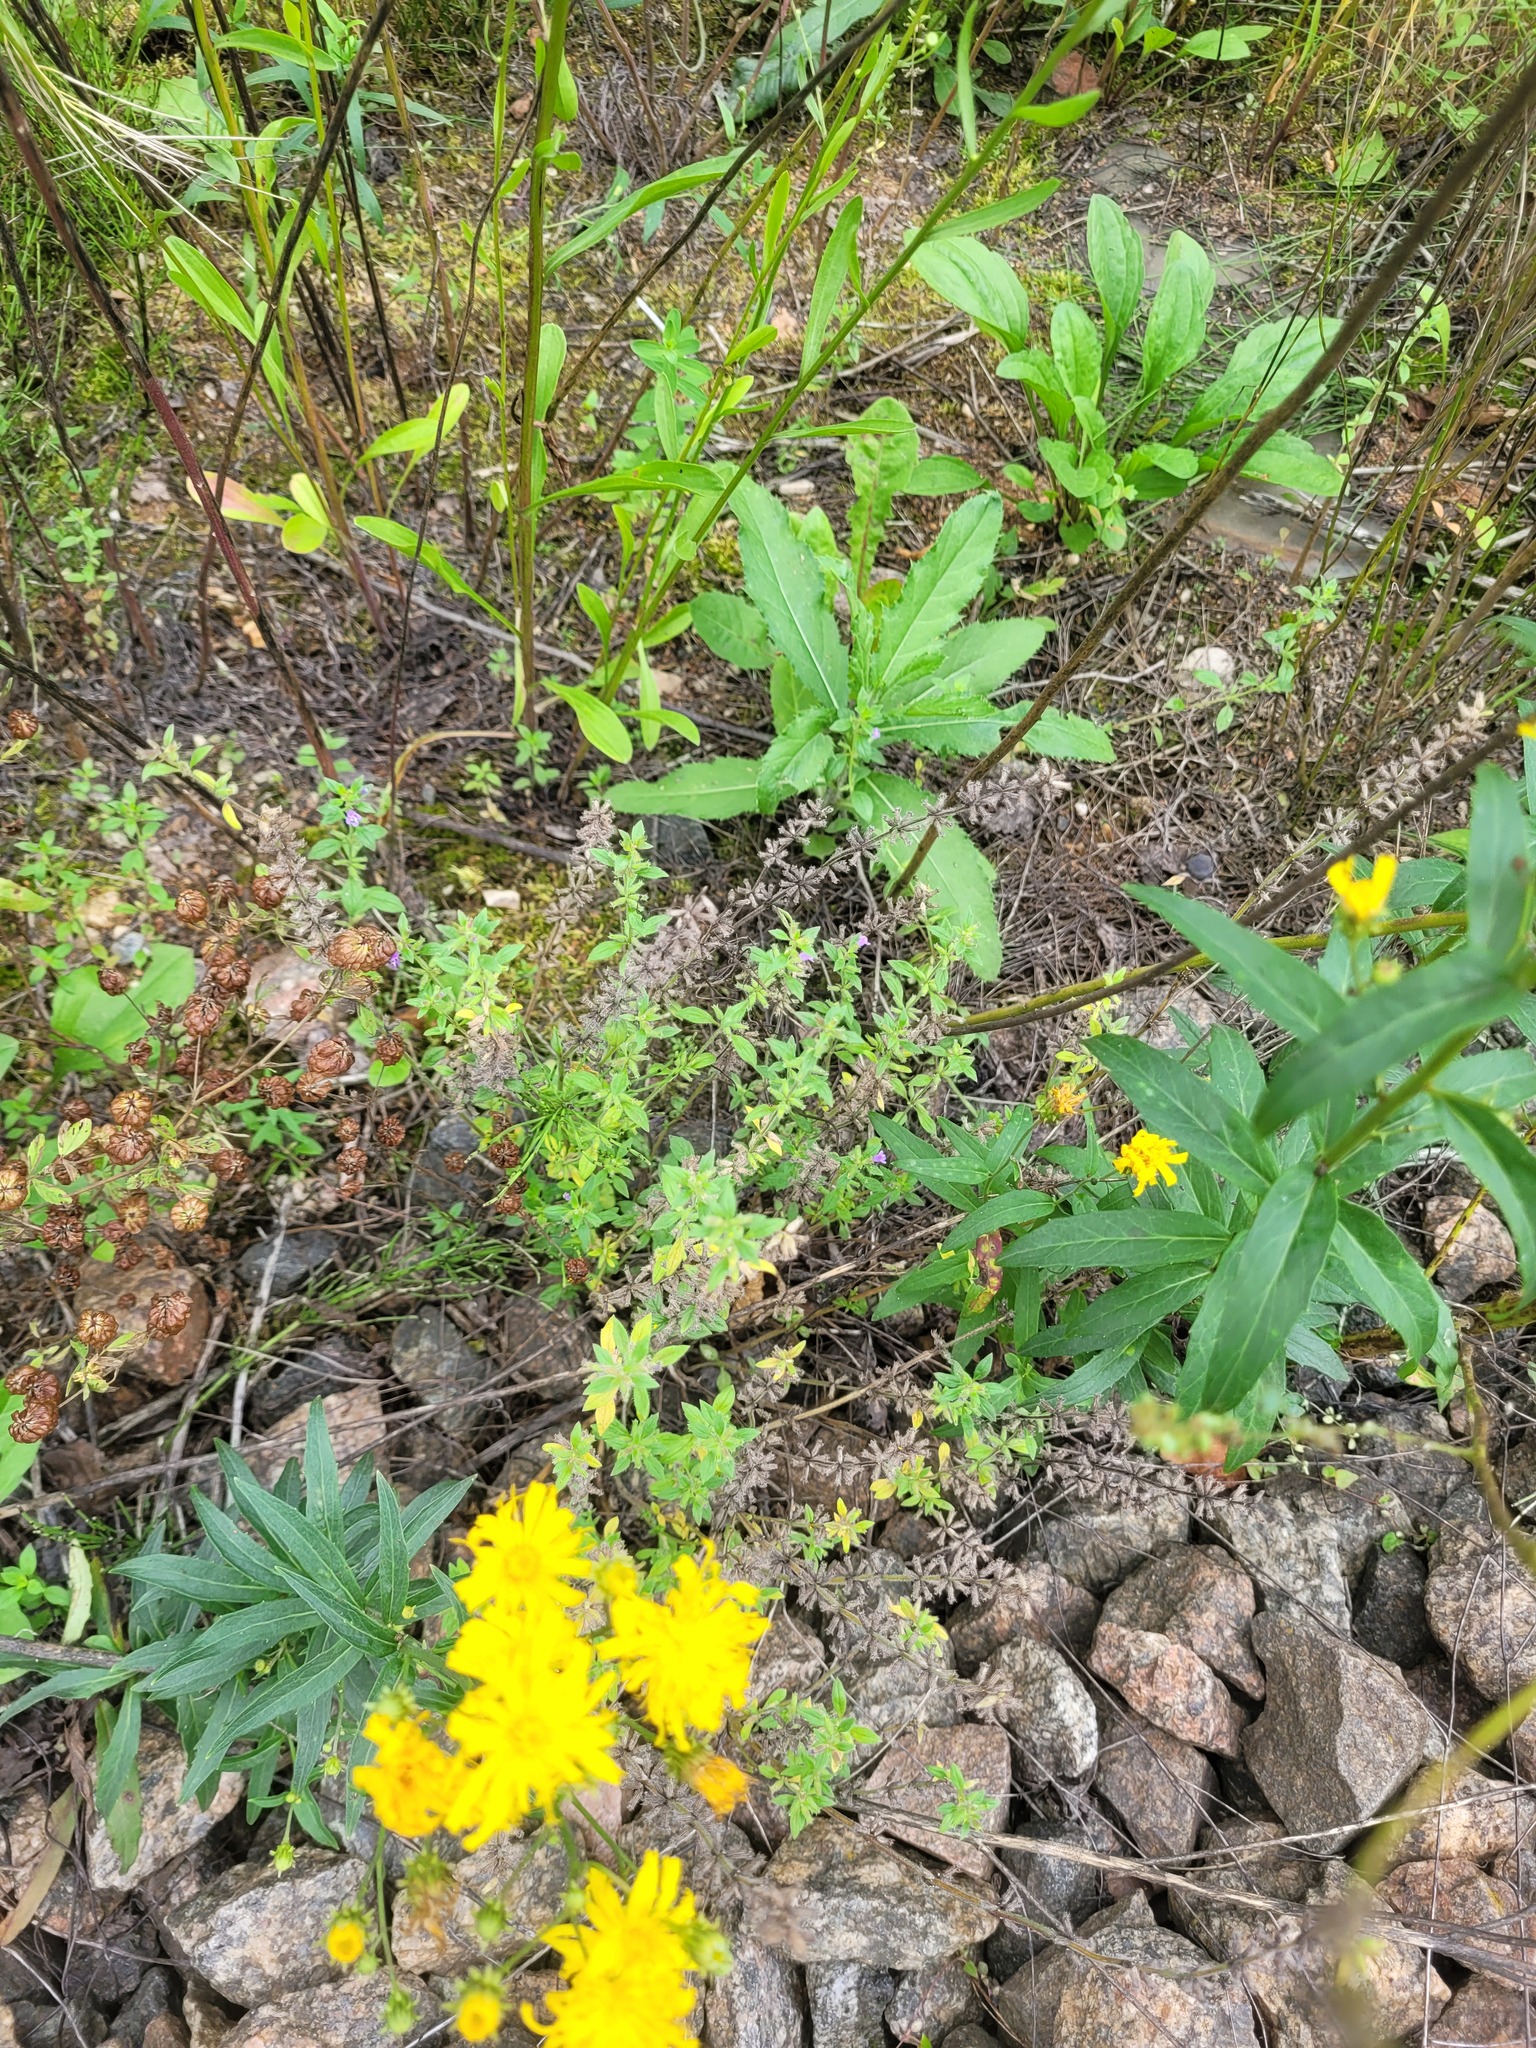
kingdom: Plantae
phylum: Tracheophyta
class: Magnoliopsida
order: Lamiales
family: Lamiaceae
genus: Clinopodium
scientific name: Clinopodium acinos
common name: Basil thyme
